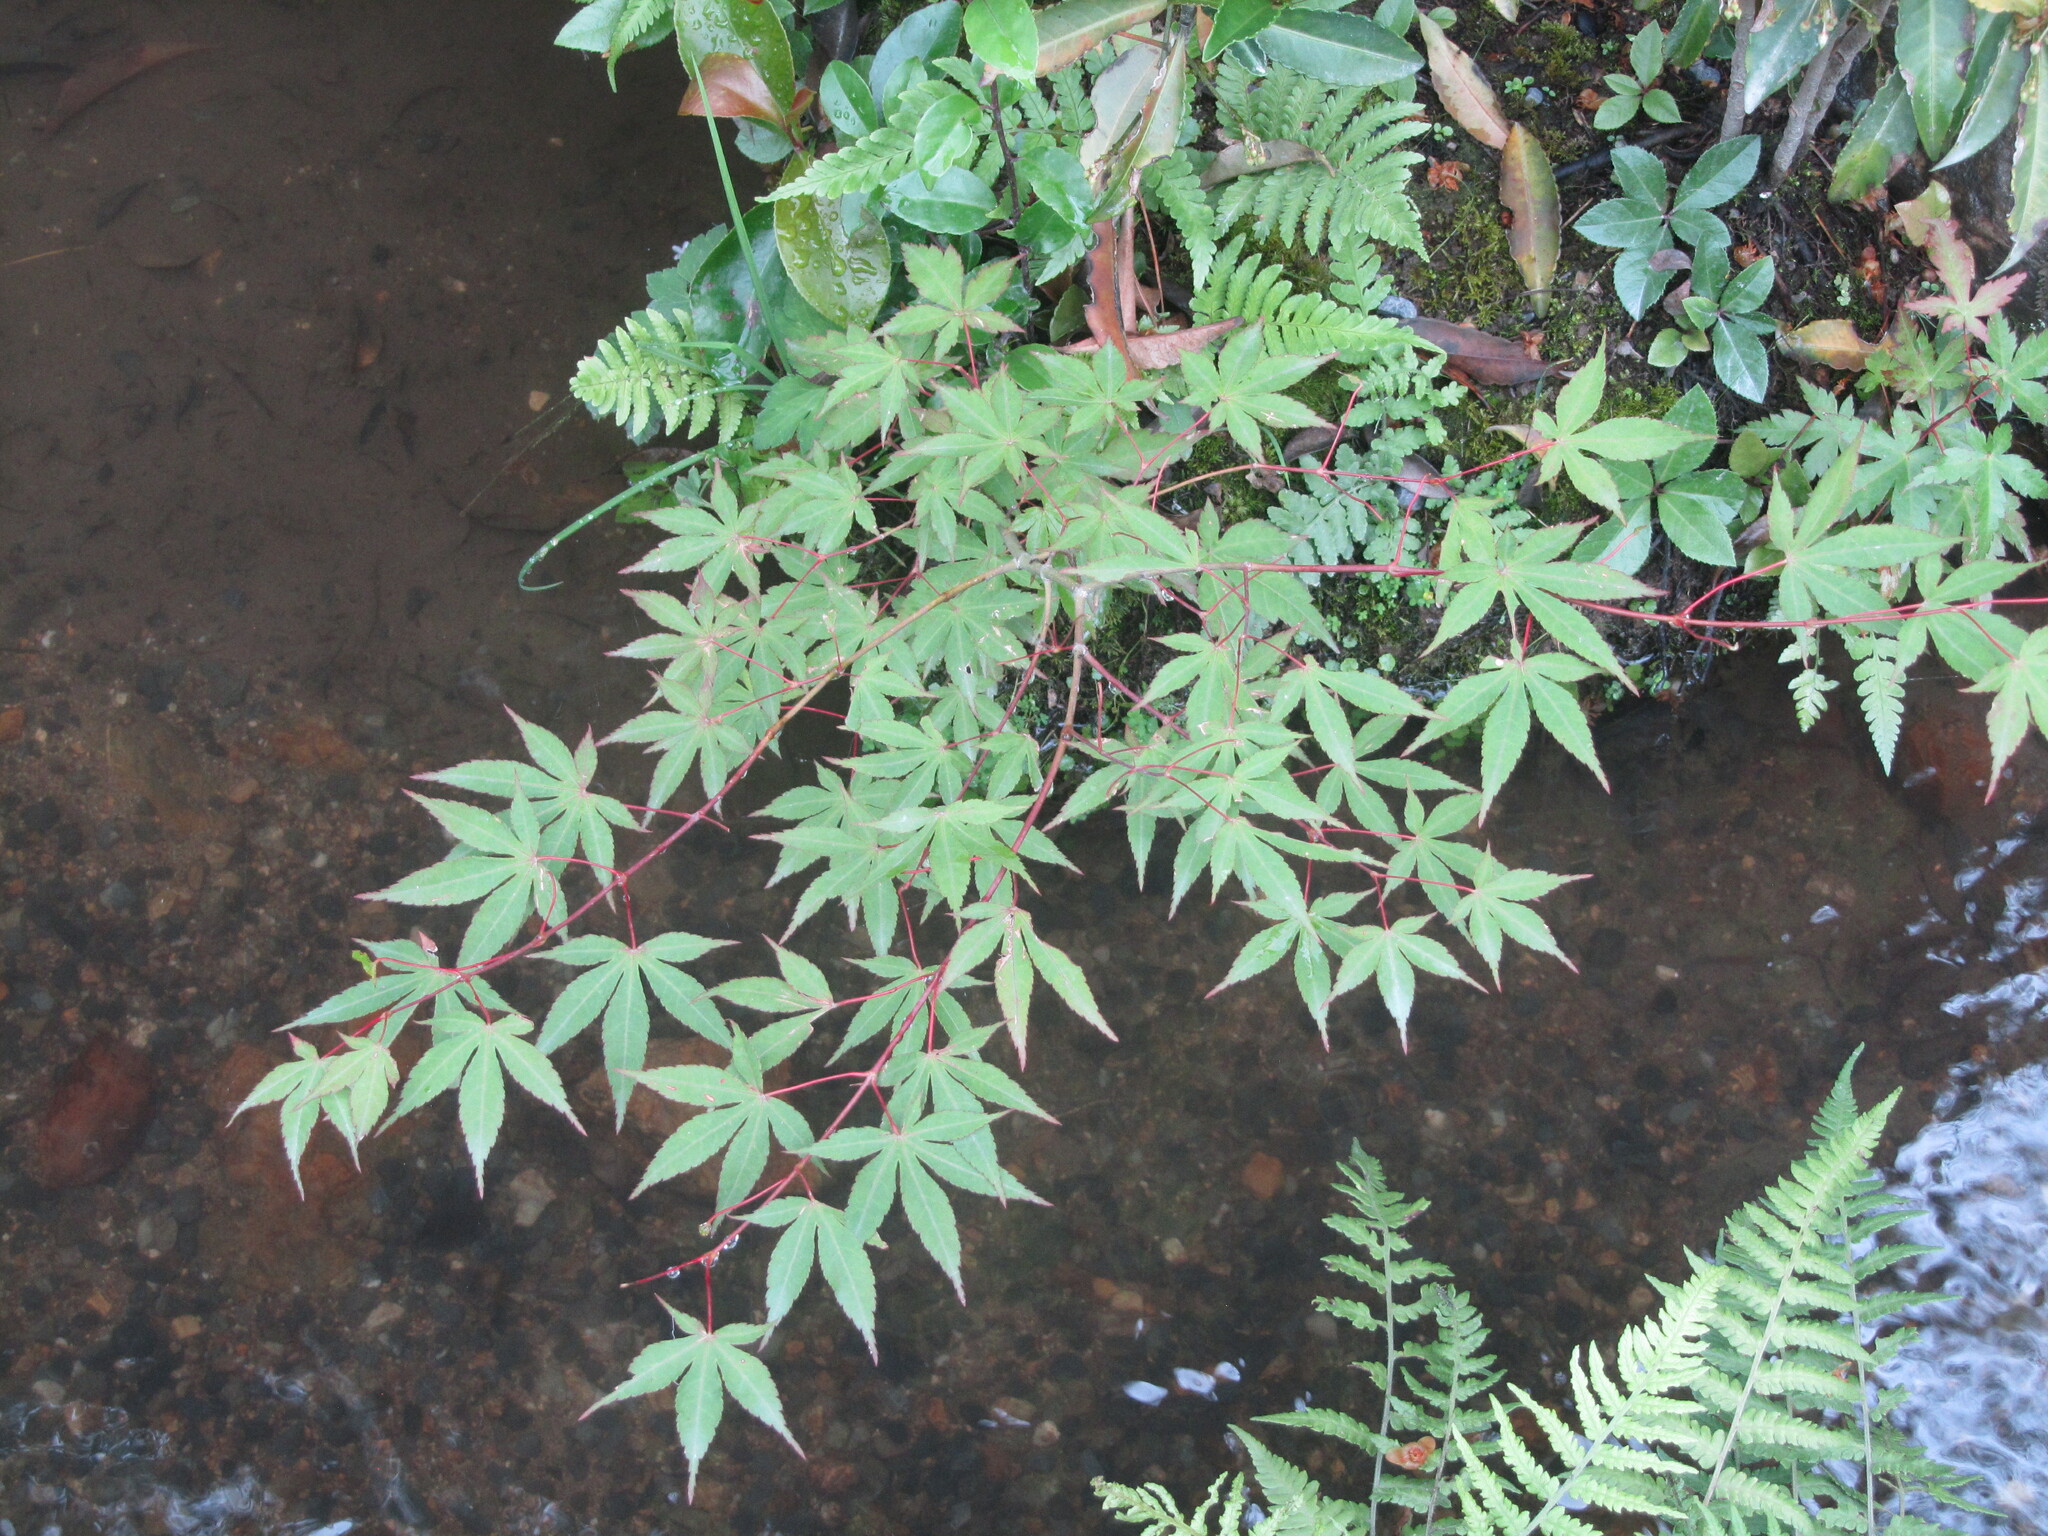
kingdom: Plantae
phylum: Tracheophyta
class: Magnoliopsida
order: Sapindales
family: Sapindaceae
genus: Acer
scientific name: Acer palmatum
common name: Japanese maple
